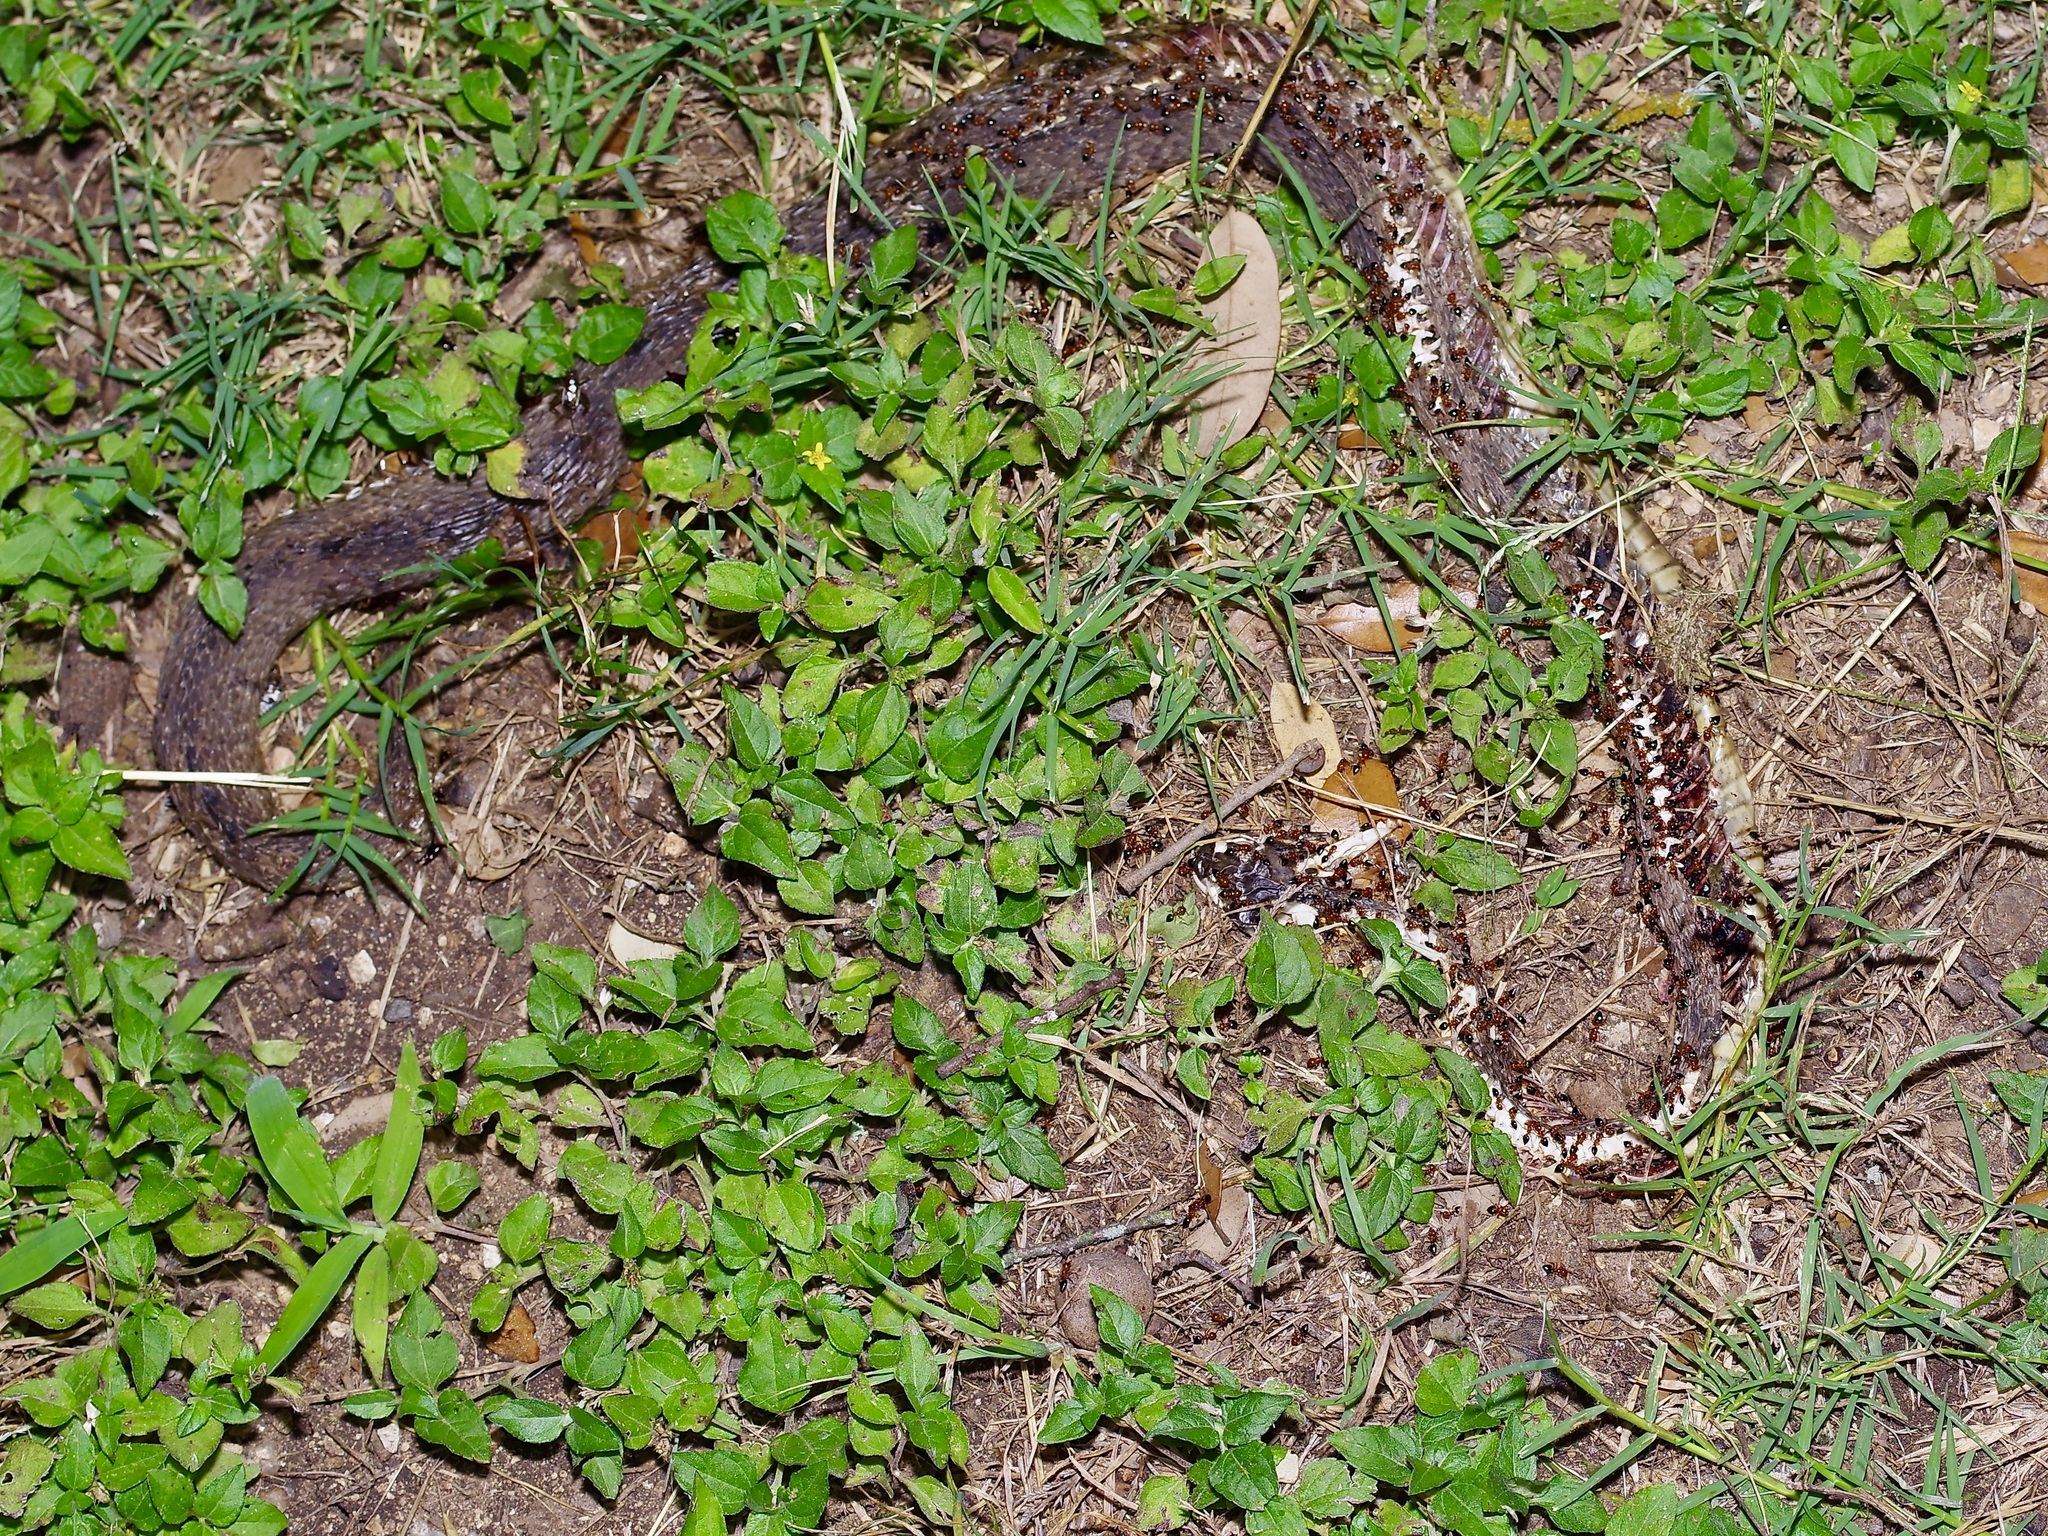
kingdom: Animalia
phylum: Chordata
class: Squamata
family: Colubridae
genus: Nerodia
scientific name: Nerodia erythrogaster
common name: Plainbelly water snake
